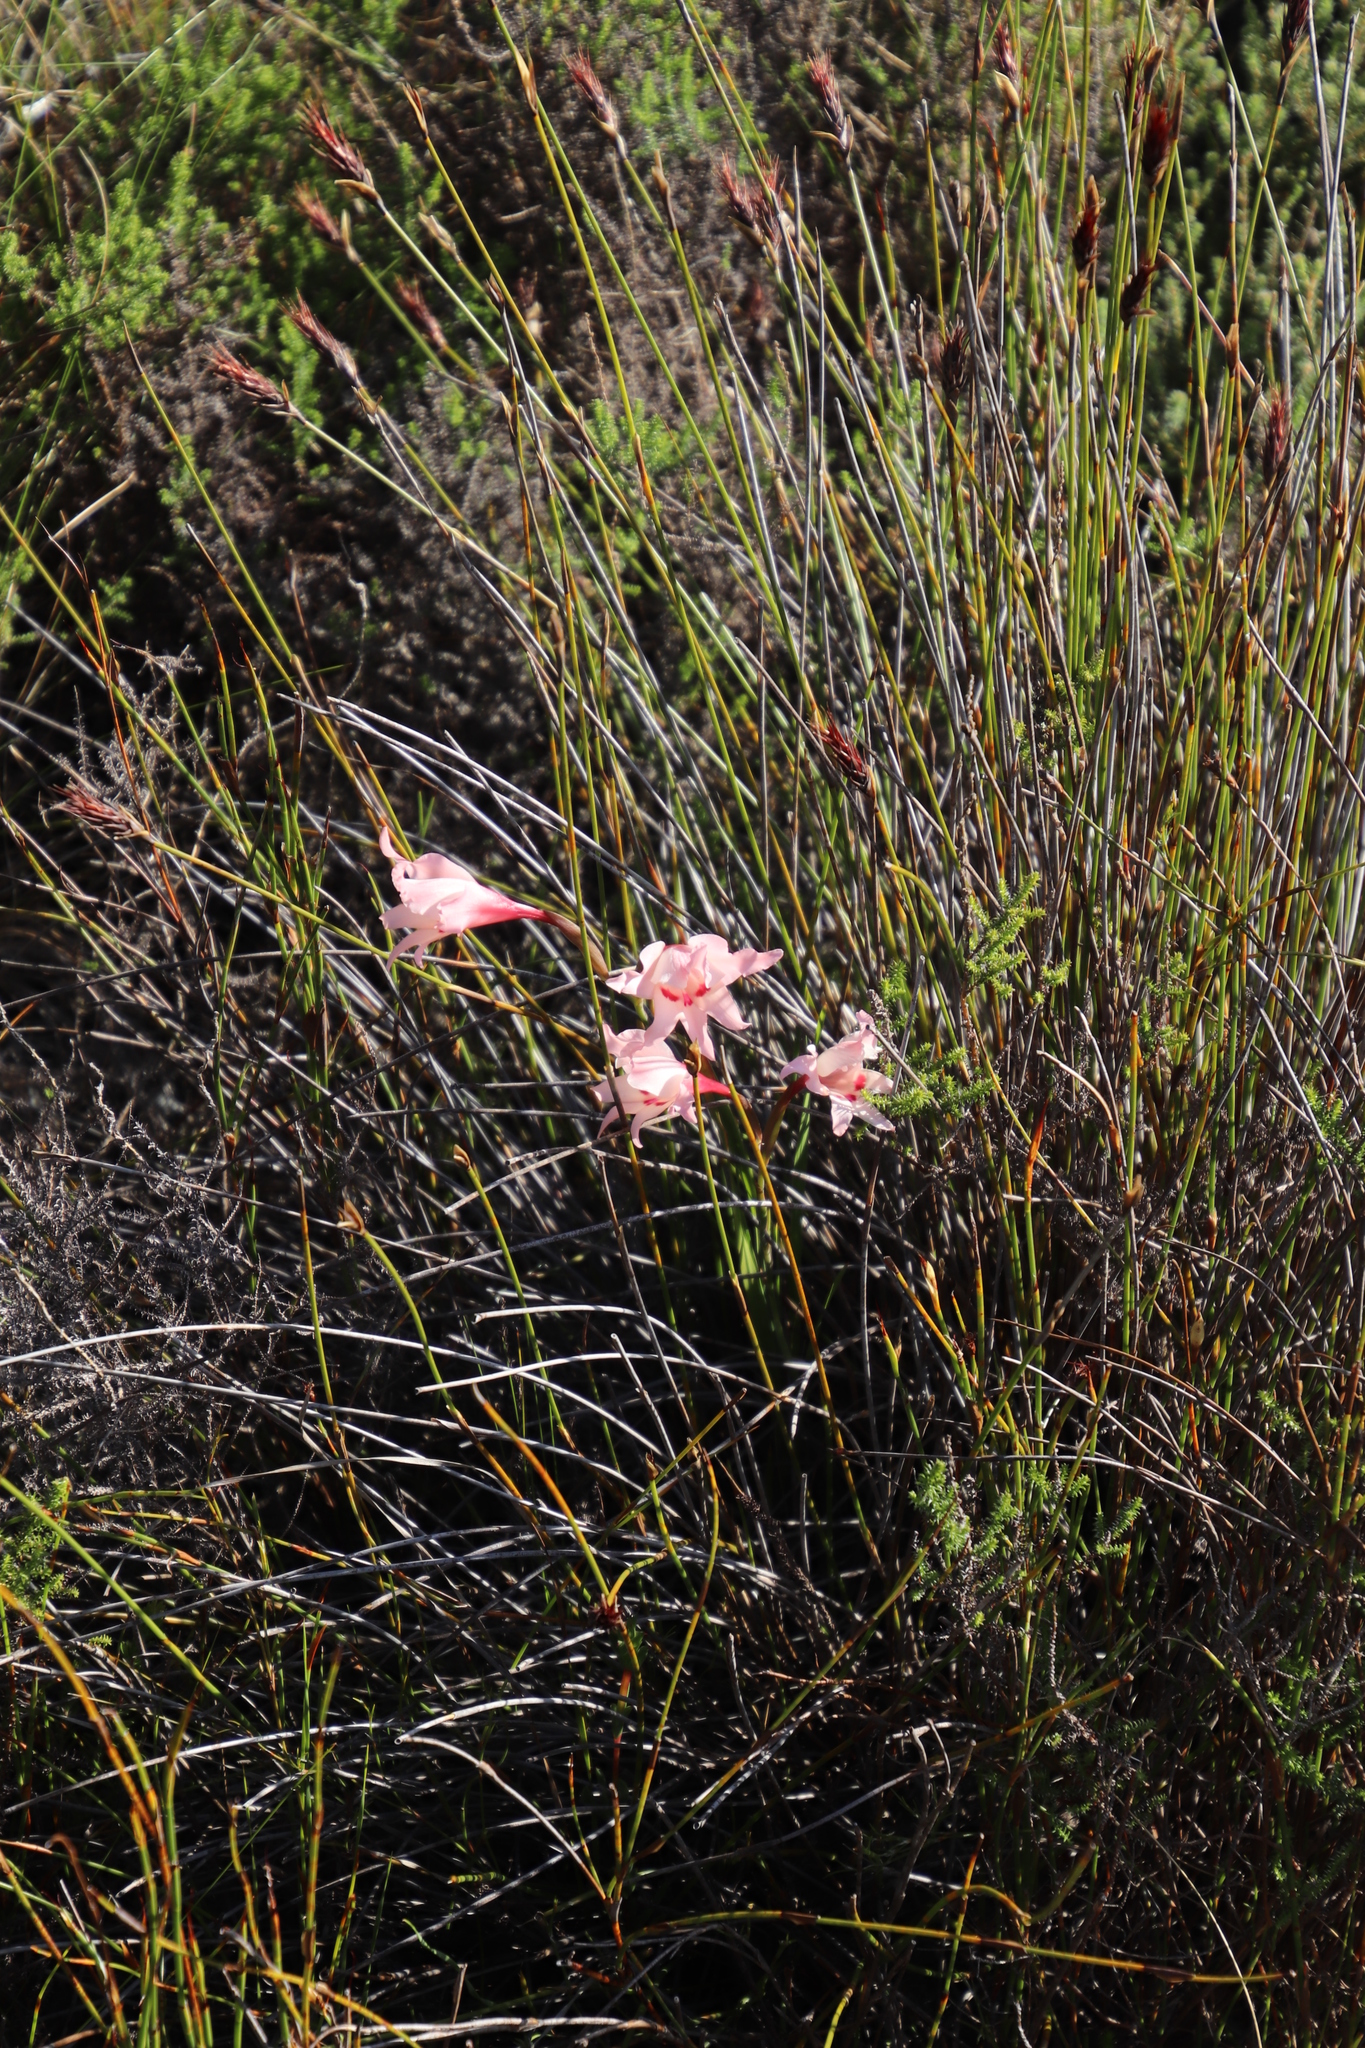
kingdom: Plantae
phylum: Tracheophyta
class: Liliopsida
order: Asparagales
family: Iridaceae
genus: Gladiolus
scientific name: Gladiolus carneus
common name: Painted-lady
